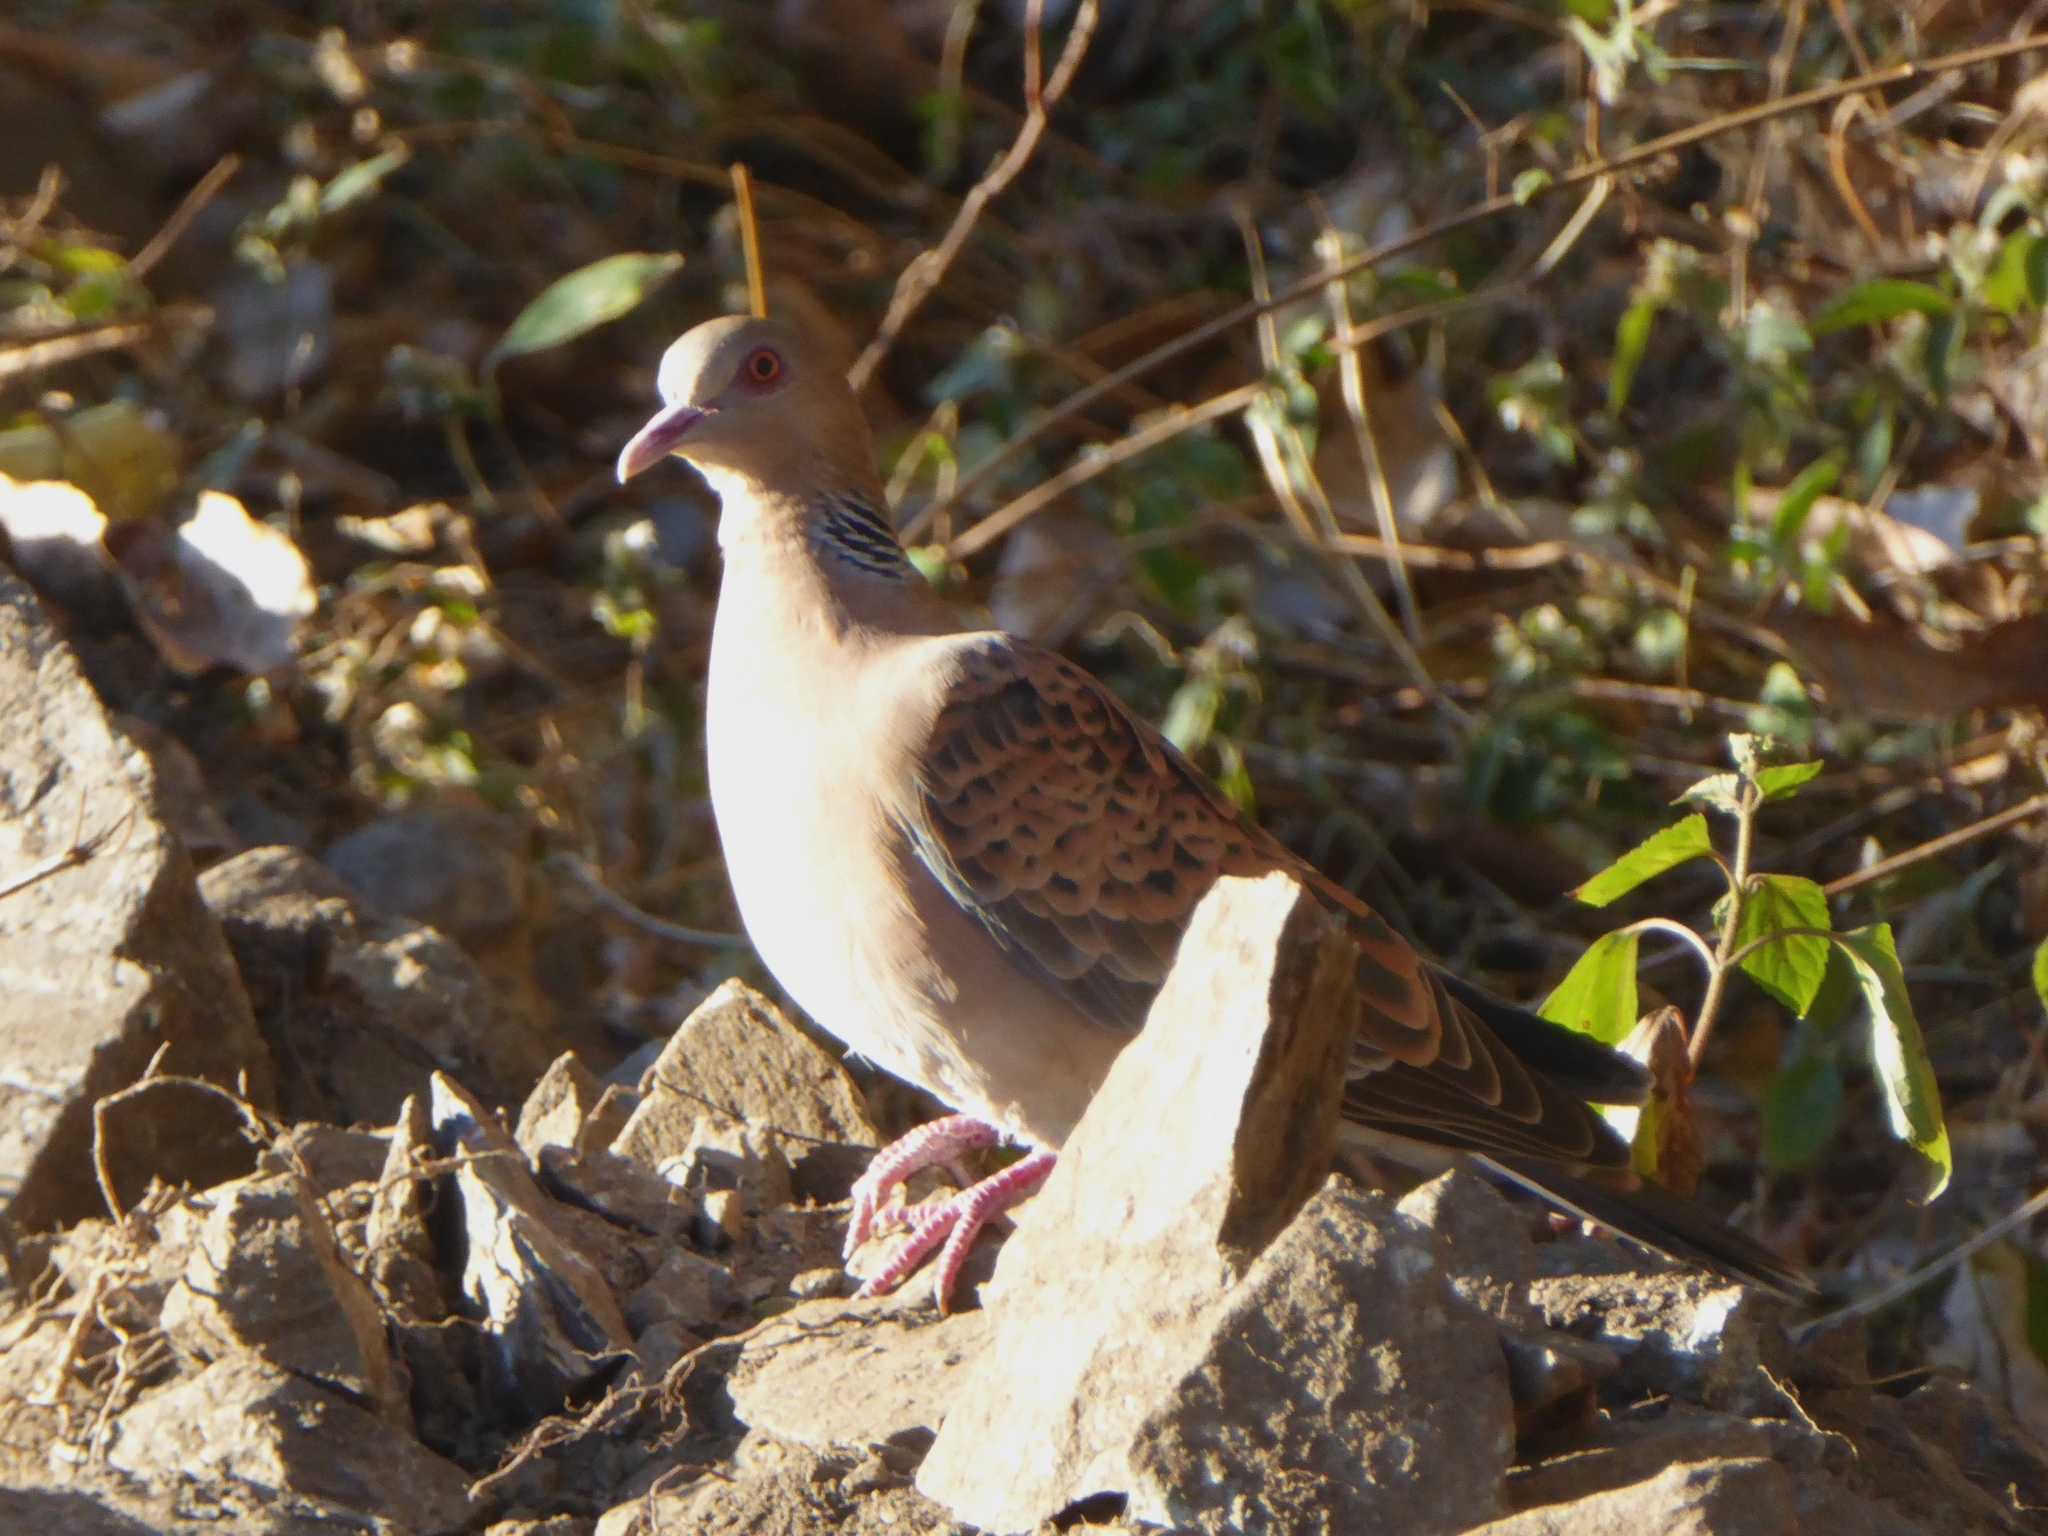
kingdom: Animalia
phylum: Chordata
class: Aves
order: Columbiformes
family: Columbidae
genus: Streptopelia
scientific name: Streptopelia orientalis
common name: Oriental turtle dove
